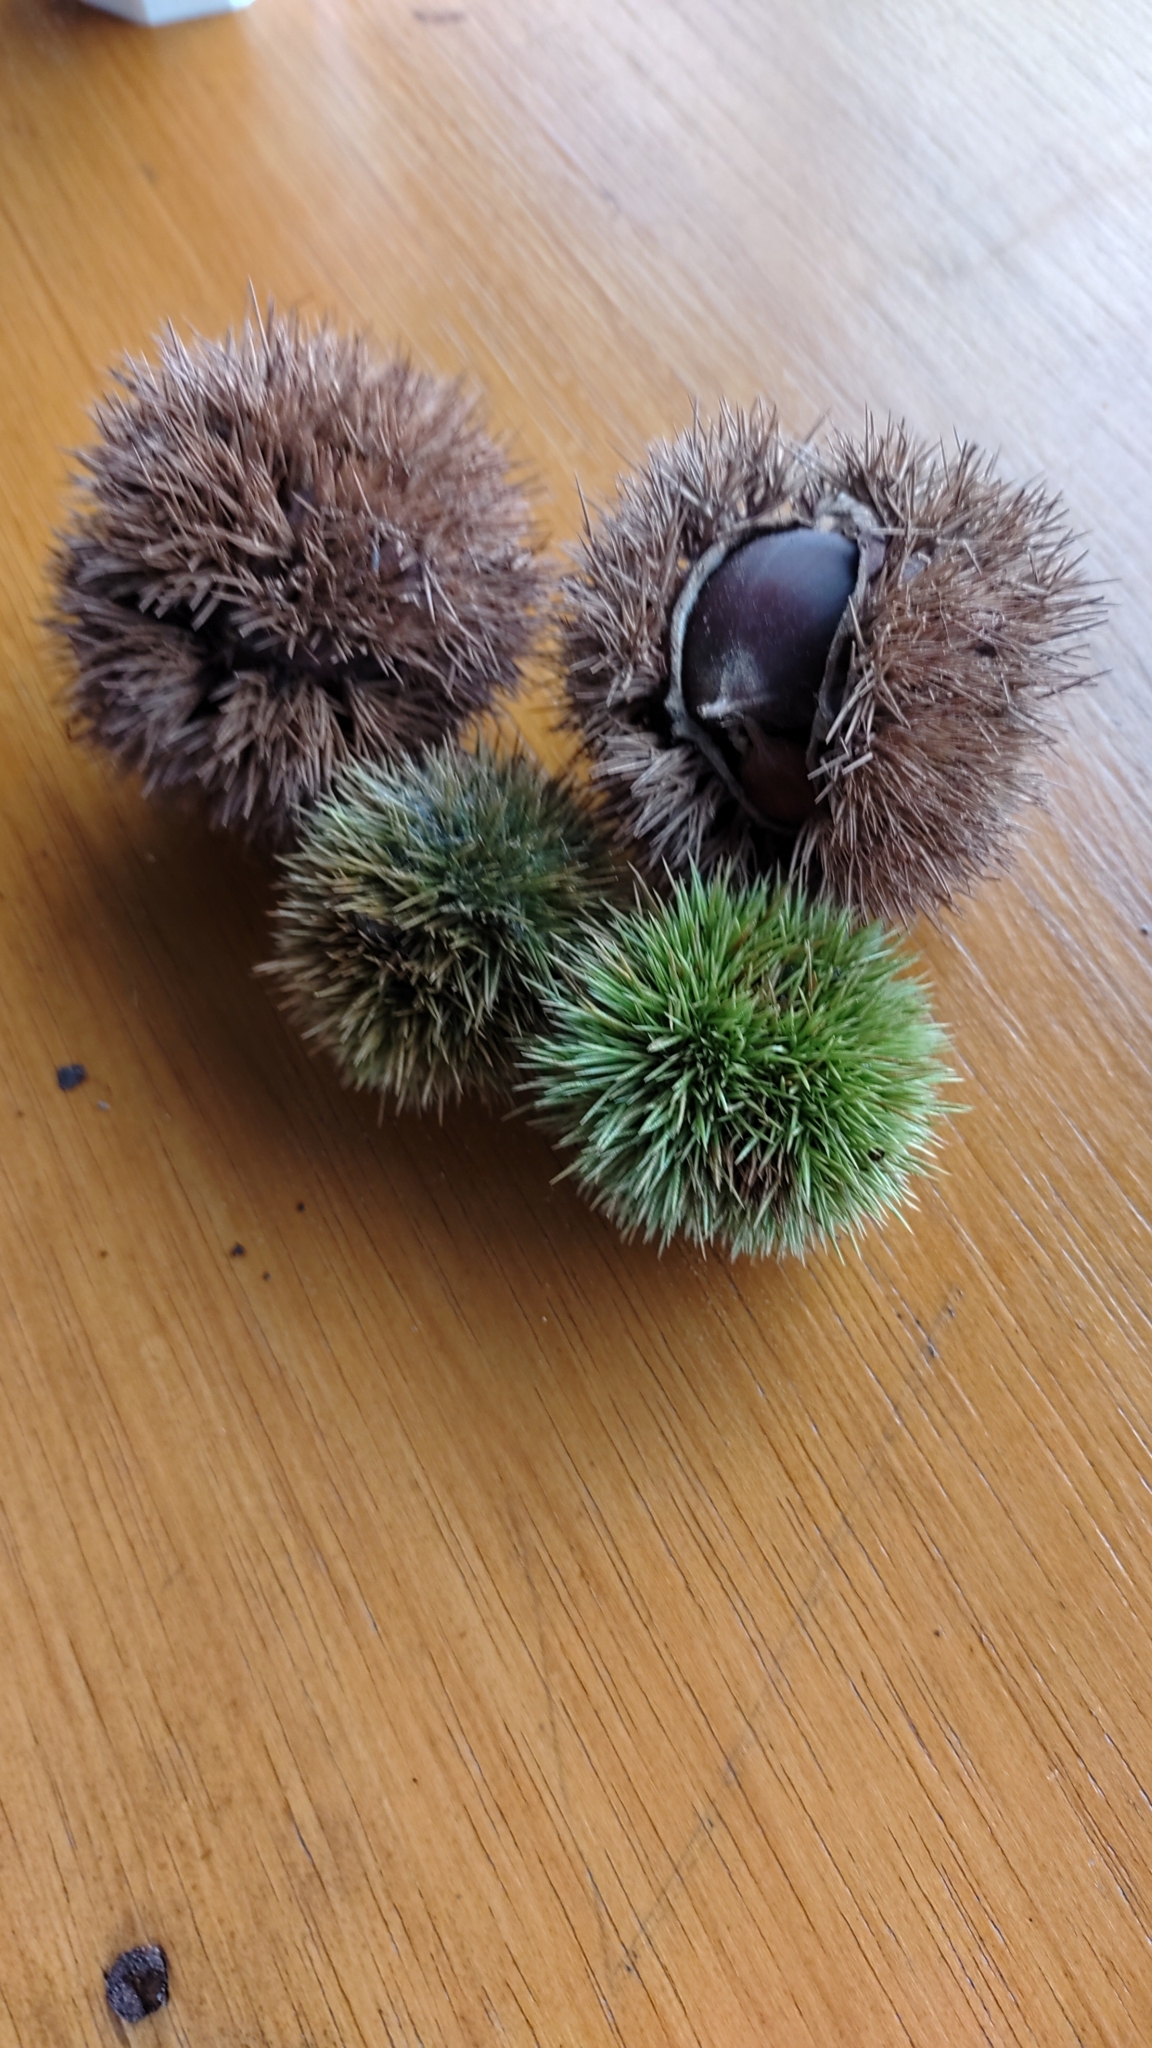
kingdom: Plantae
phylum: Tracheophyta
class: Magnoliopsida
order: Fagales
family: Fagaceae
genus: Castanea
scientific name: Castanea mollissima
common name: Chinese chestnut
